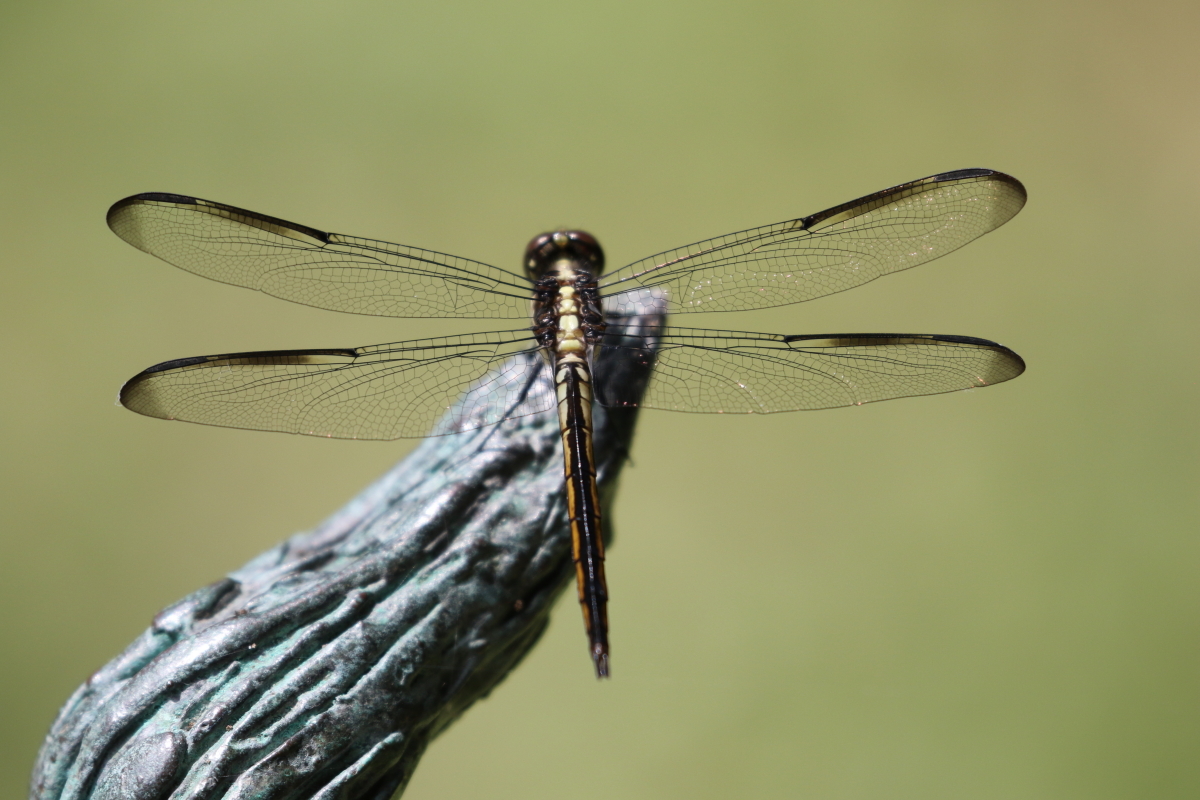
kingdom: Animalia
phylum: Arthropoda
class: Insecta
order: Odonata
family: Libellulidae
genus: Libellula
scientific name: Libellula incesta
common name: Slaty skimmer
